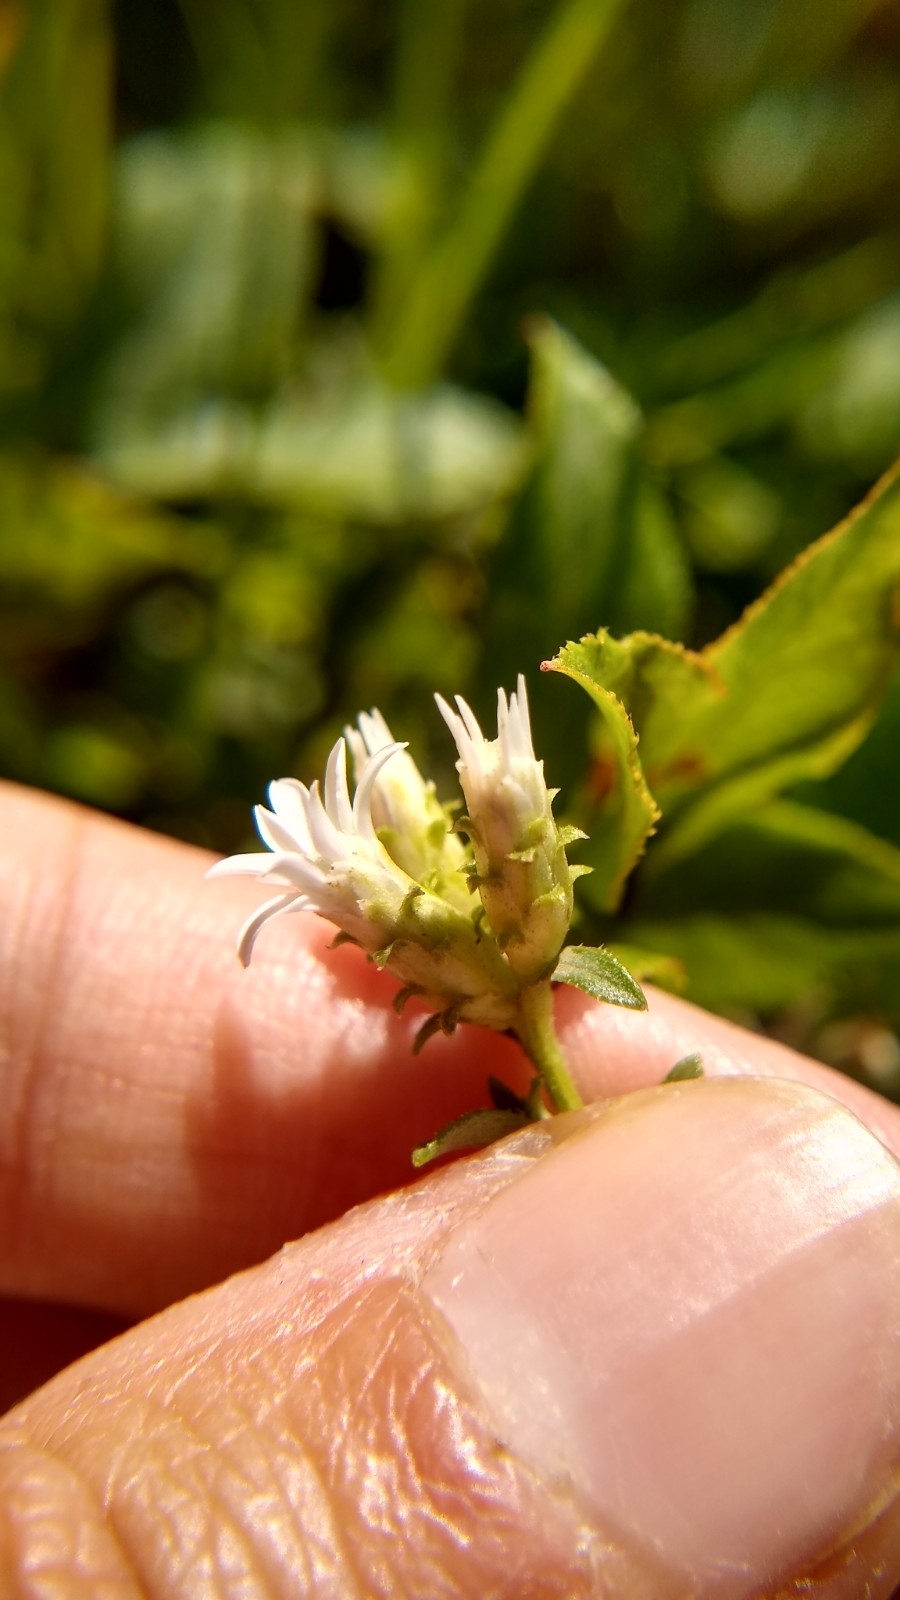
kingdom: Plantae
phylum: Tracheophyta
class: Magnoliopsida
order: Asterales
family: Asteraceae
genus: Sericocarpus
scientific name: Sericocarpus asteroides
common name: Toothed white-top aster
